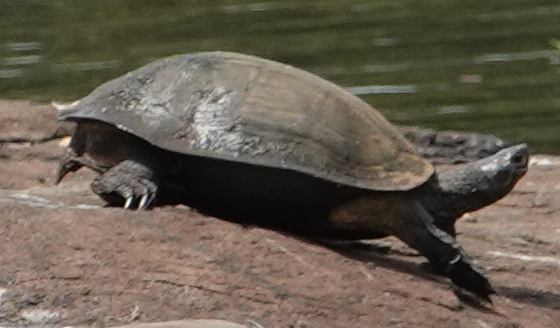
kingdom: Animalia
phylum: Chordata
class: Testudines
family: Geoemydidae
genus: Melanochelys
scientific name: Melanochelys trijuga
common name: Indian black turtle
